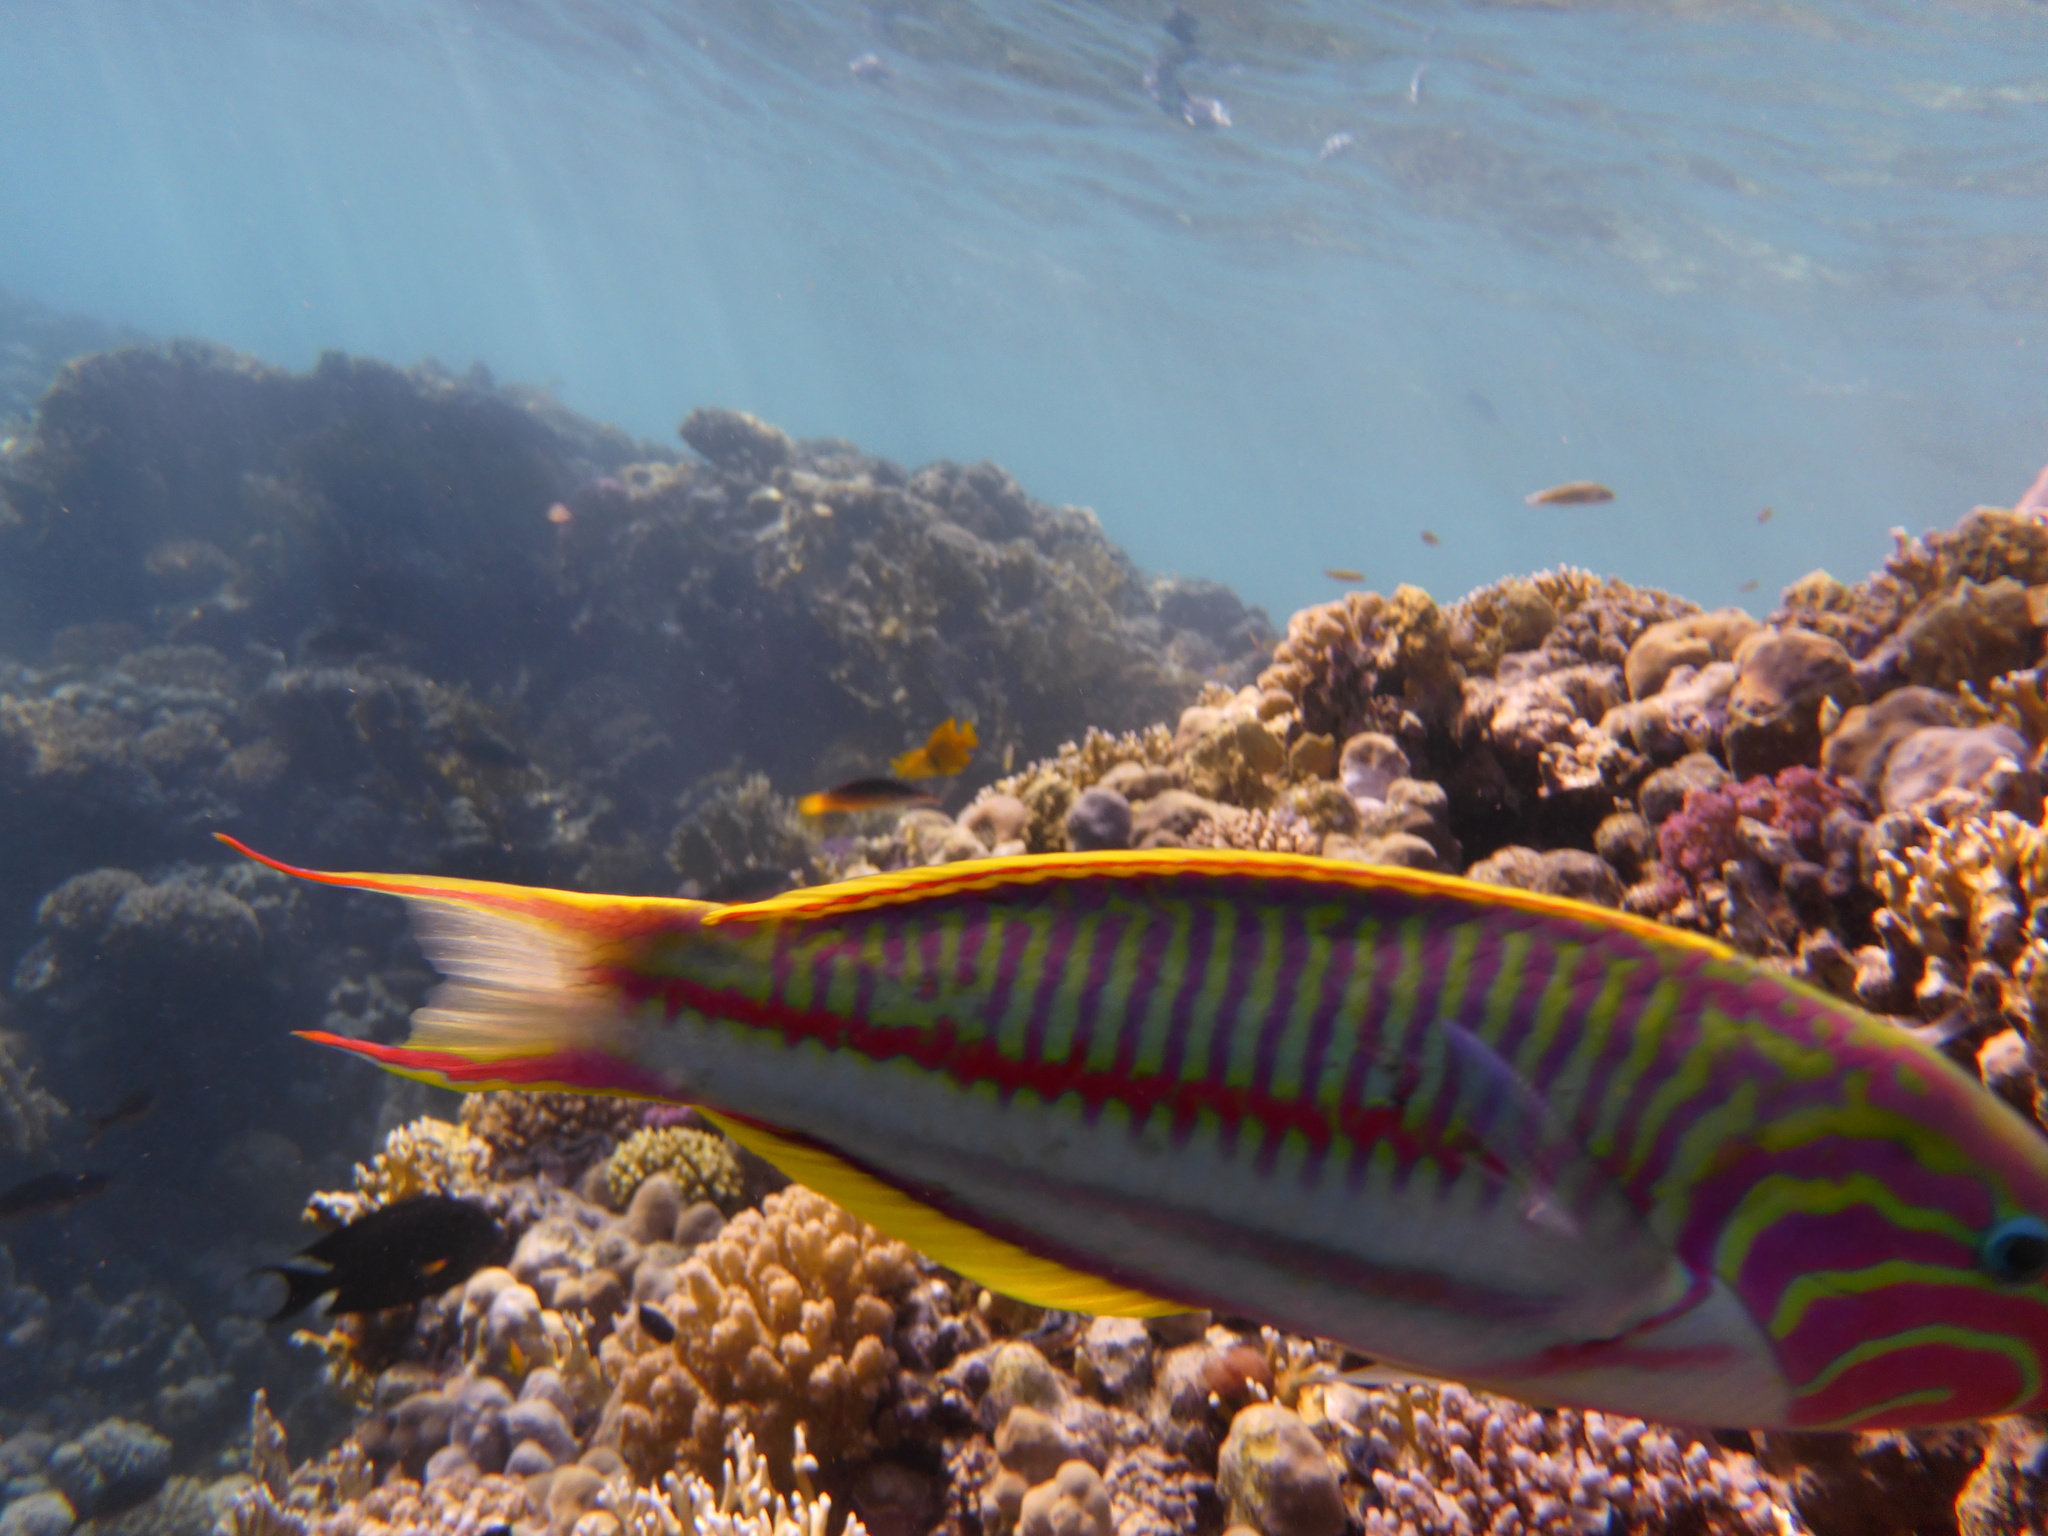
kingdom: Animalia
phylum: Chordata
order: Perciformes
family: Labridae
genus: Thalassoma
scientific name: Thalassoma rueppellii
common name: Klunzinger's wrasse
